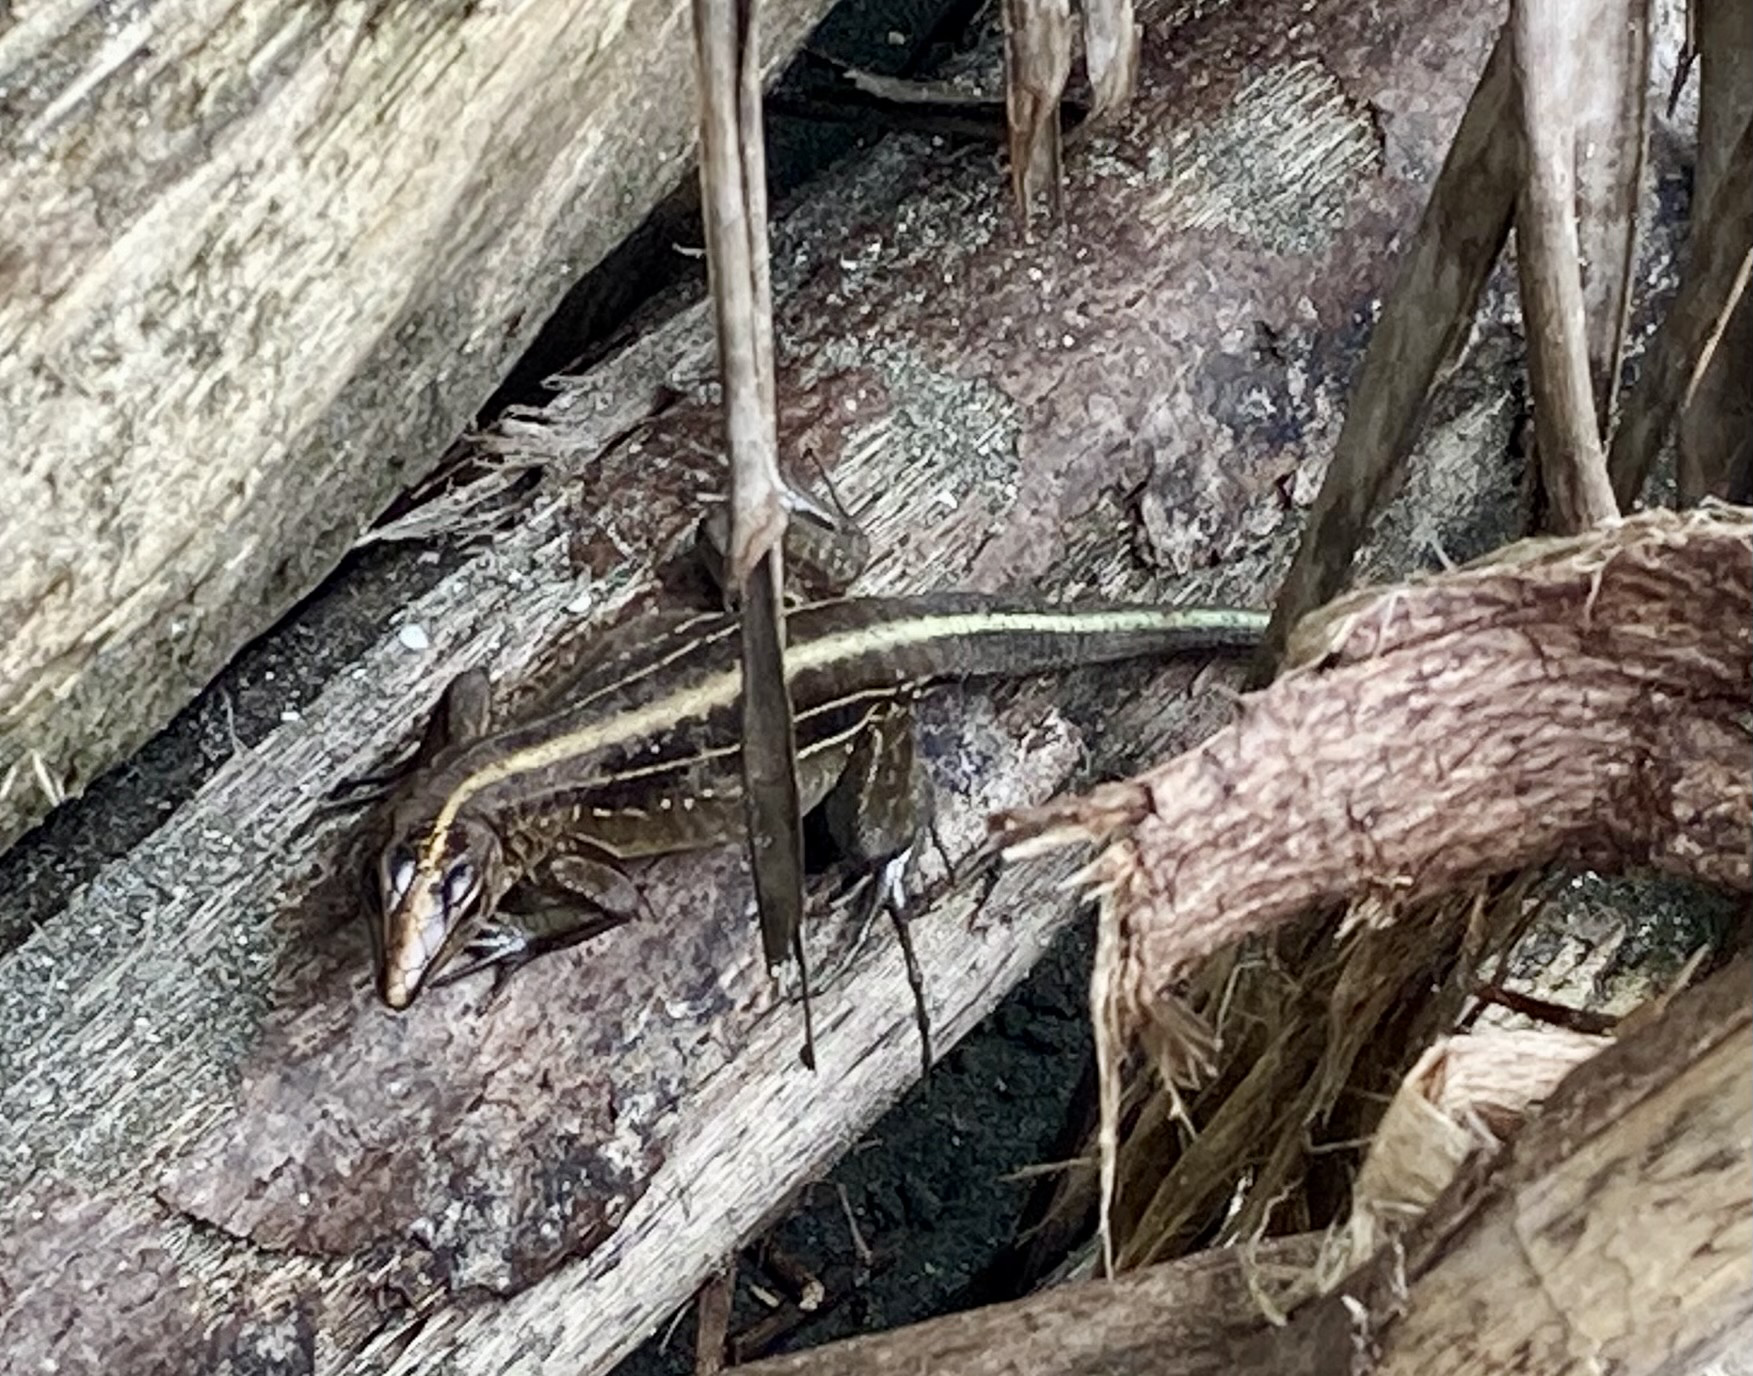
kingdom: Animalia
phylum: Chordata
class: Squamata
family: Teiidae
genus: Holcosus
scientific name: Holcosus festivus
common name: Middle american ameiva
